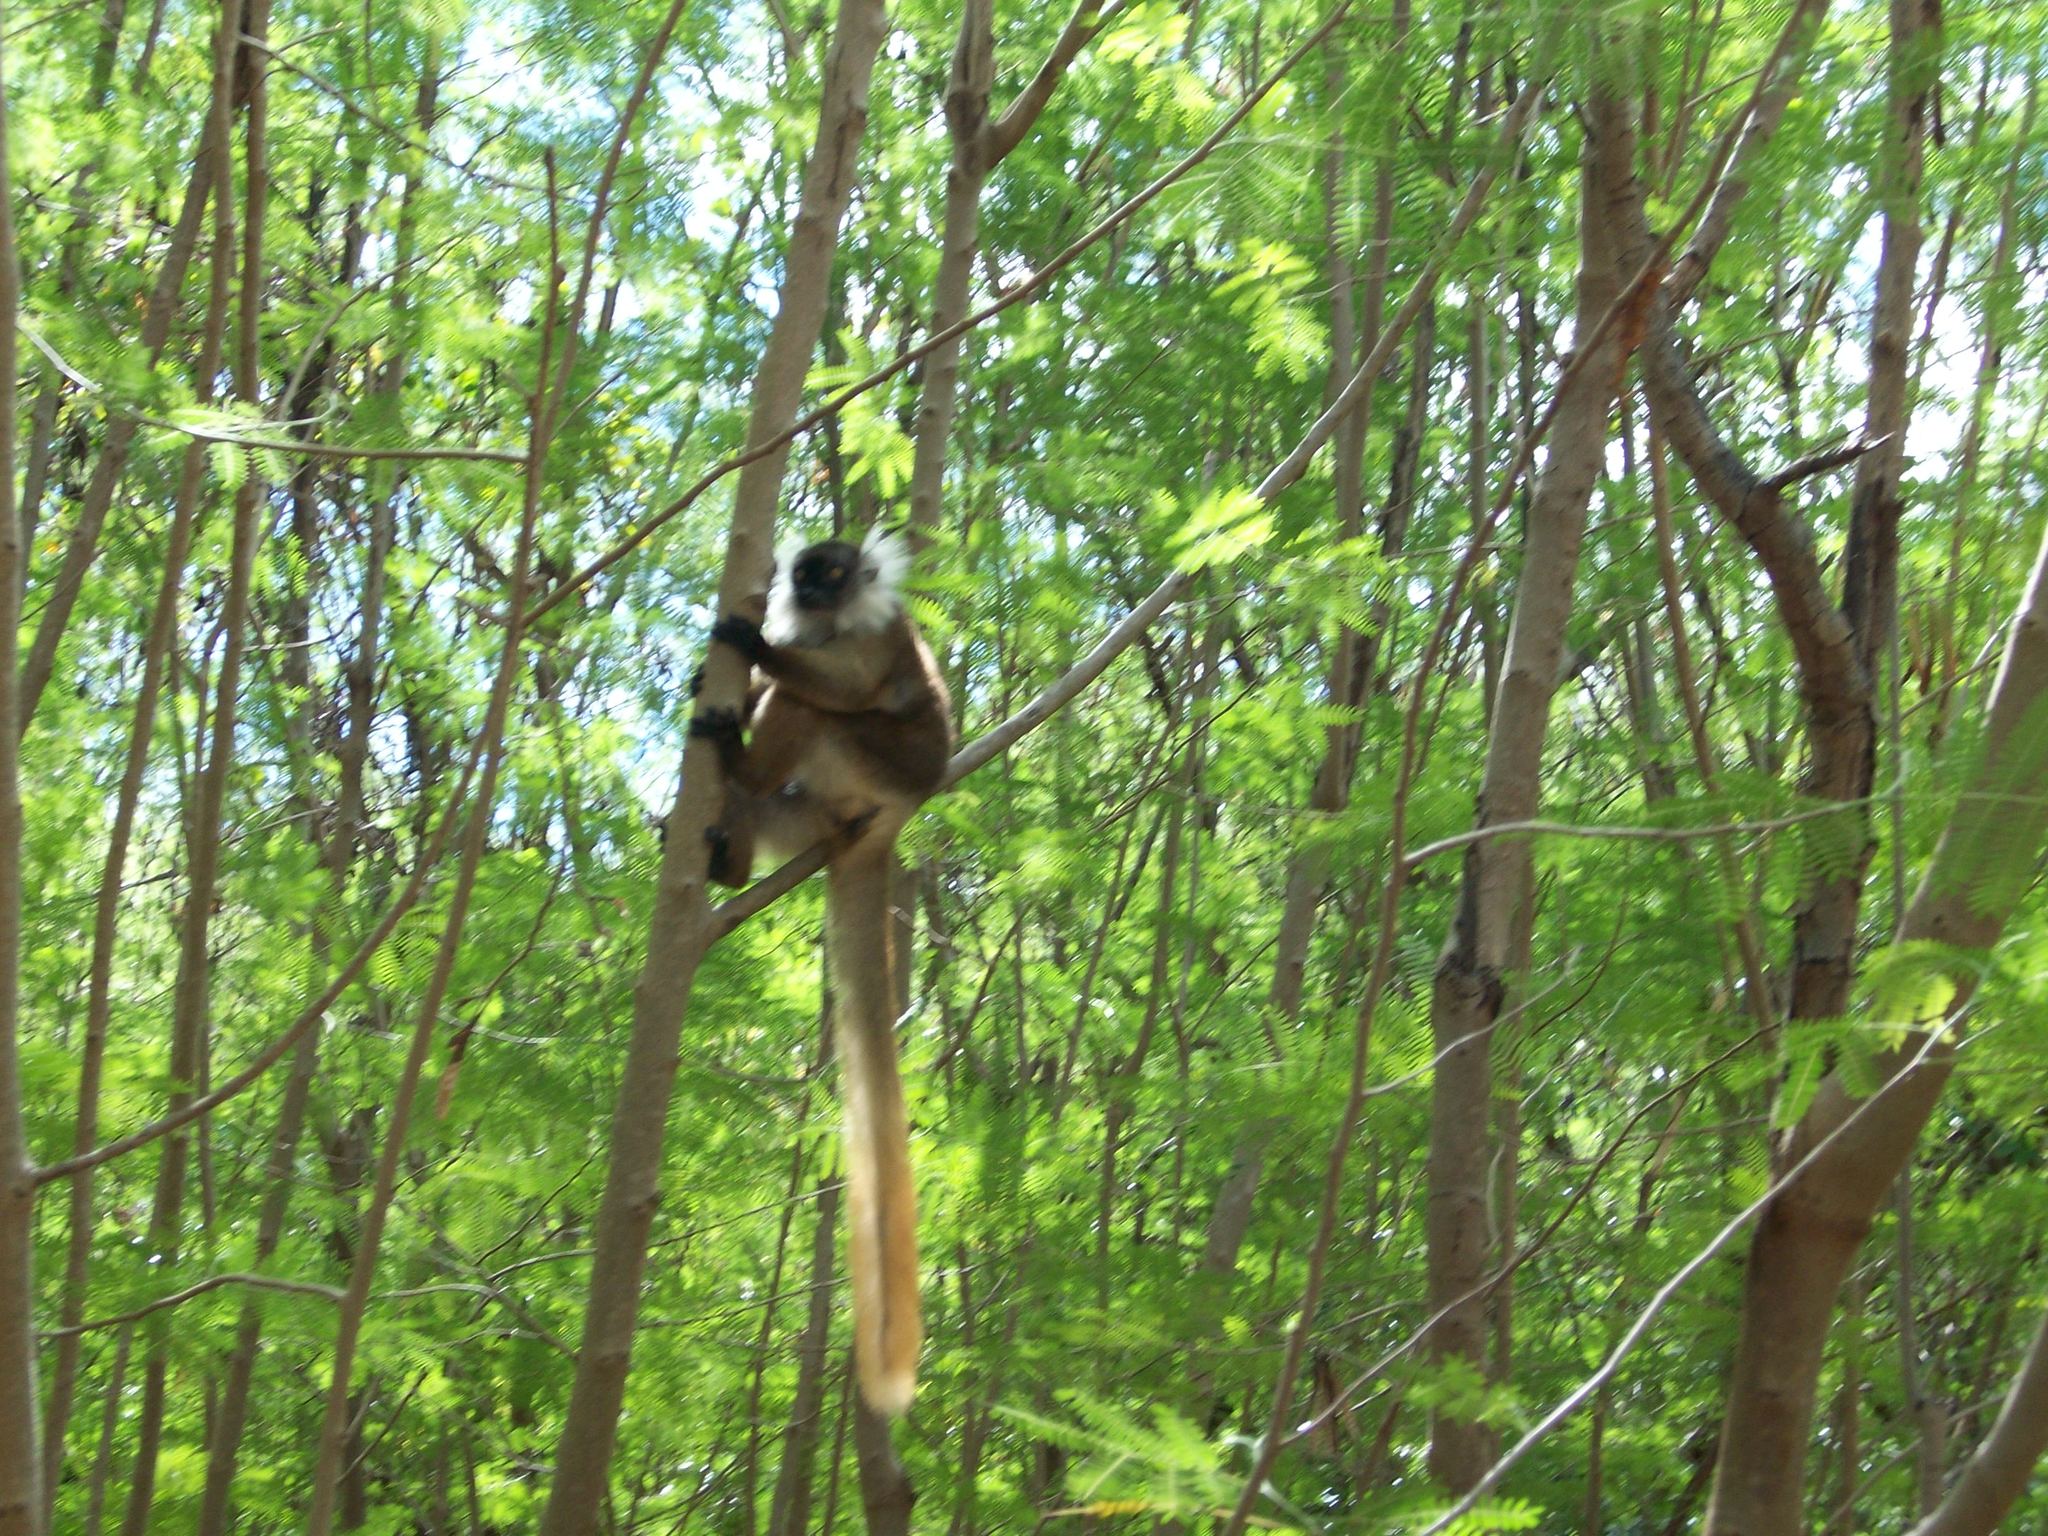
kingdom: Animalia
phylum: Chordata
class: Mammalia
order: Primates
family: Lemuridae
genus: Eulemur
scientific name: Eulemur macaco
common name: Black lemur
